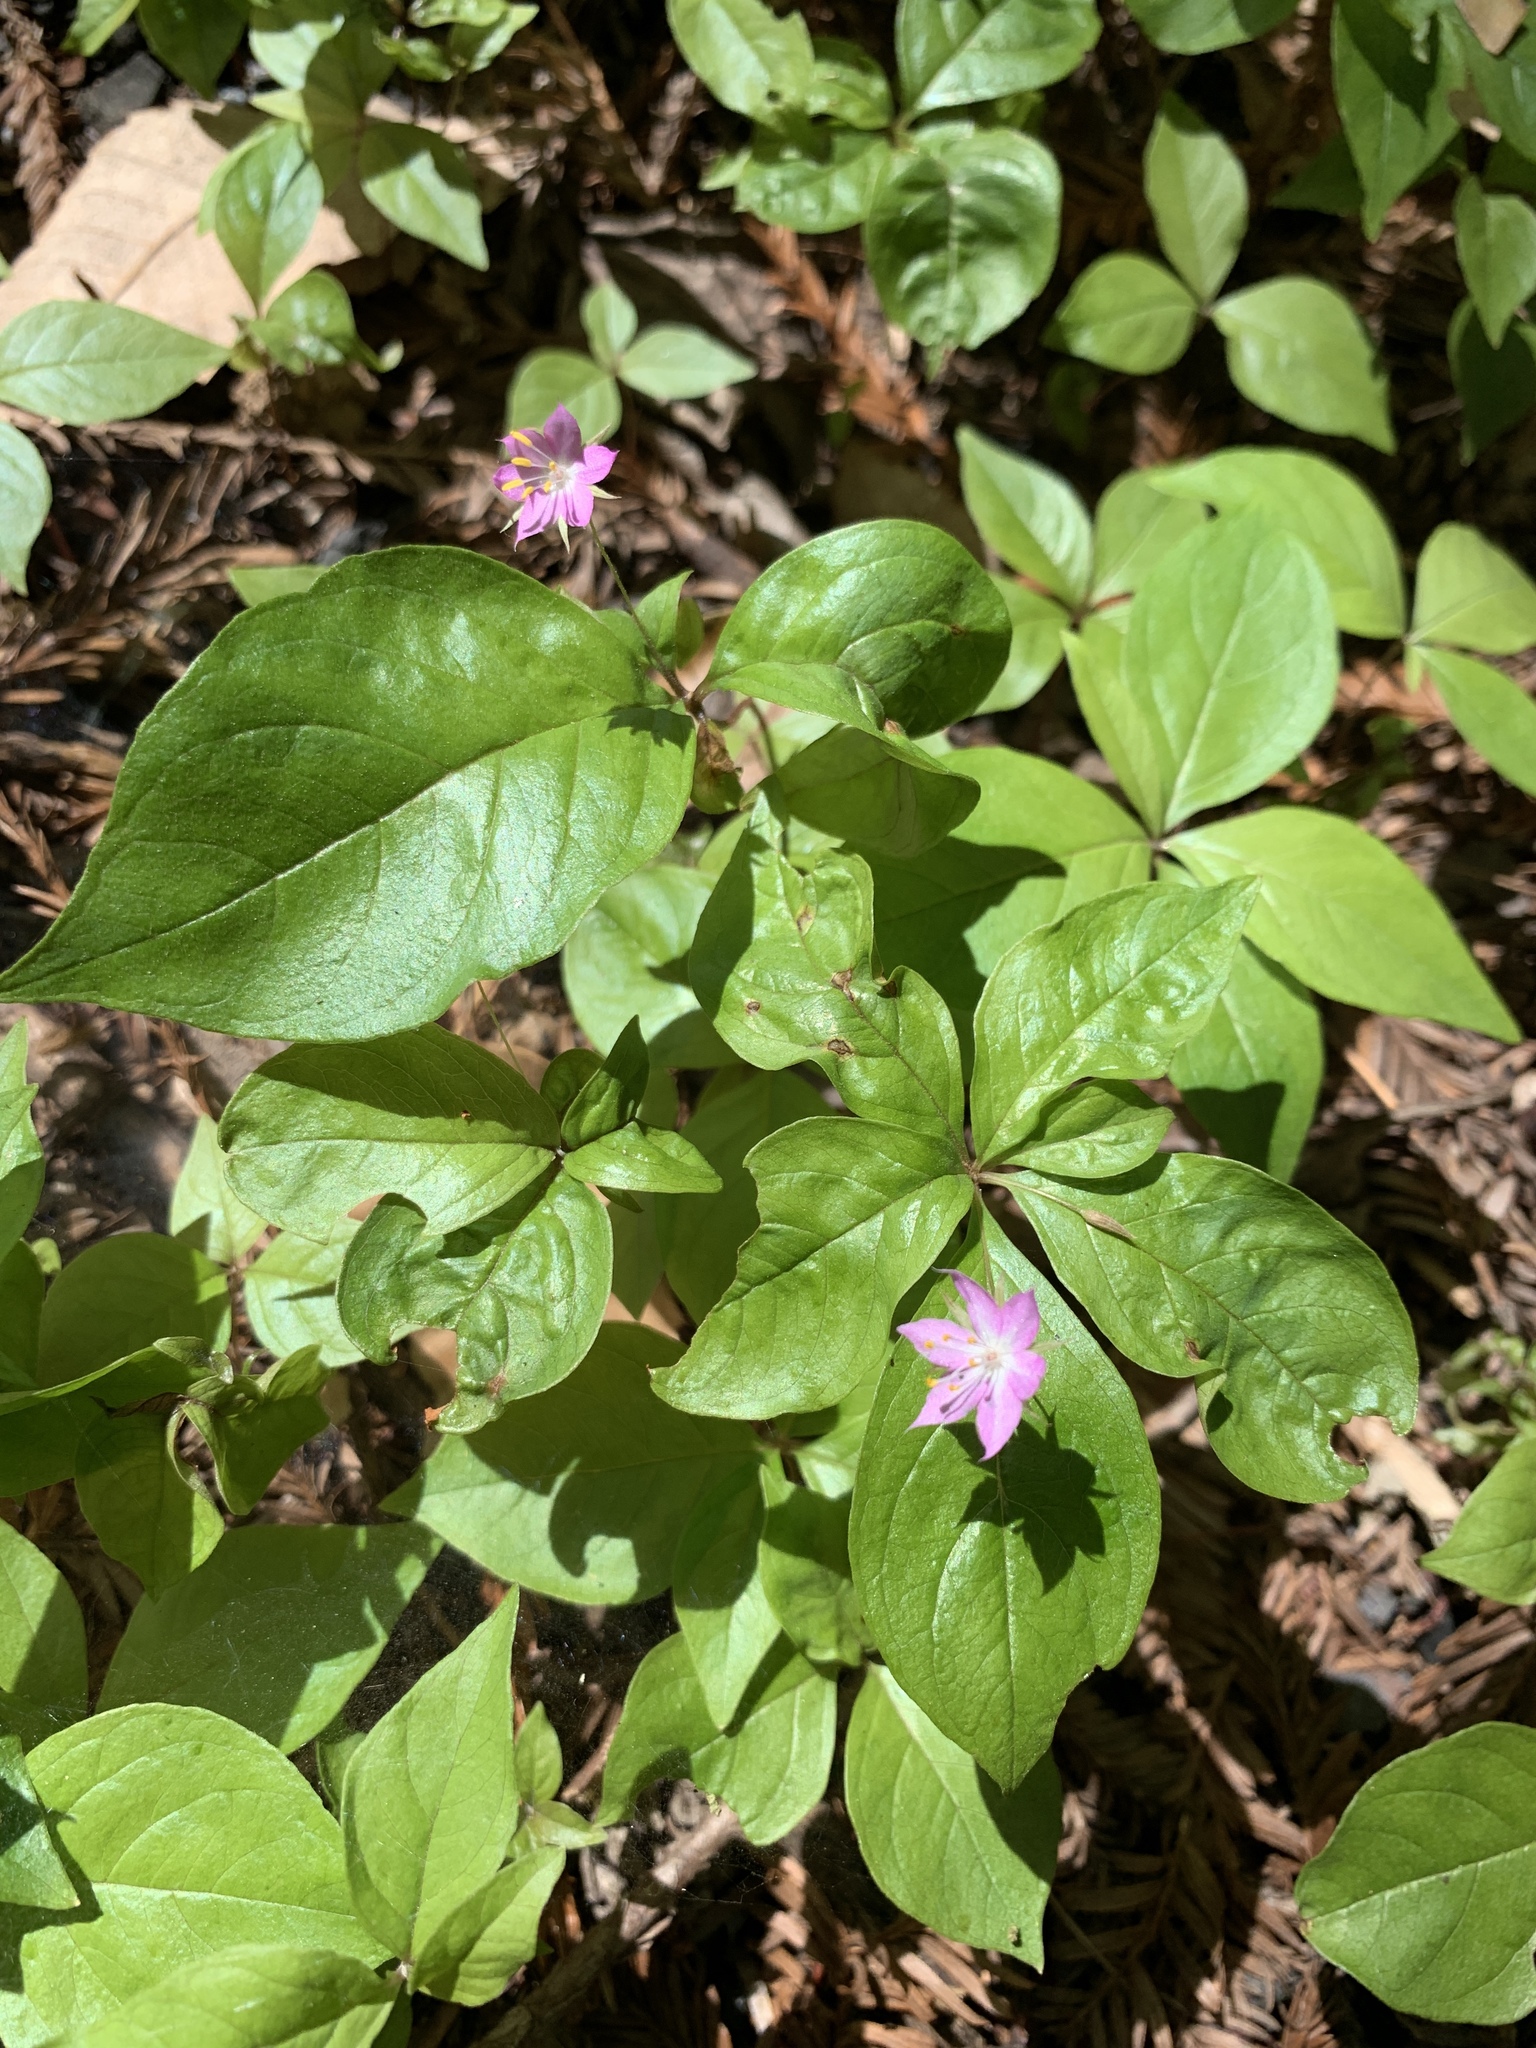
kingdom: Plantae
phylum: Tracheophyta
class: Magnoliopsida
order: Ericales
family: Primulaceae
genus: Lysimachia
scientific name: Lysimachia latifolia
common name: Pacific starflower
